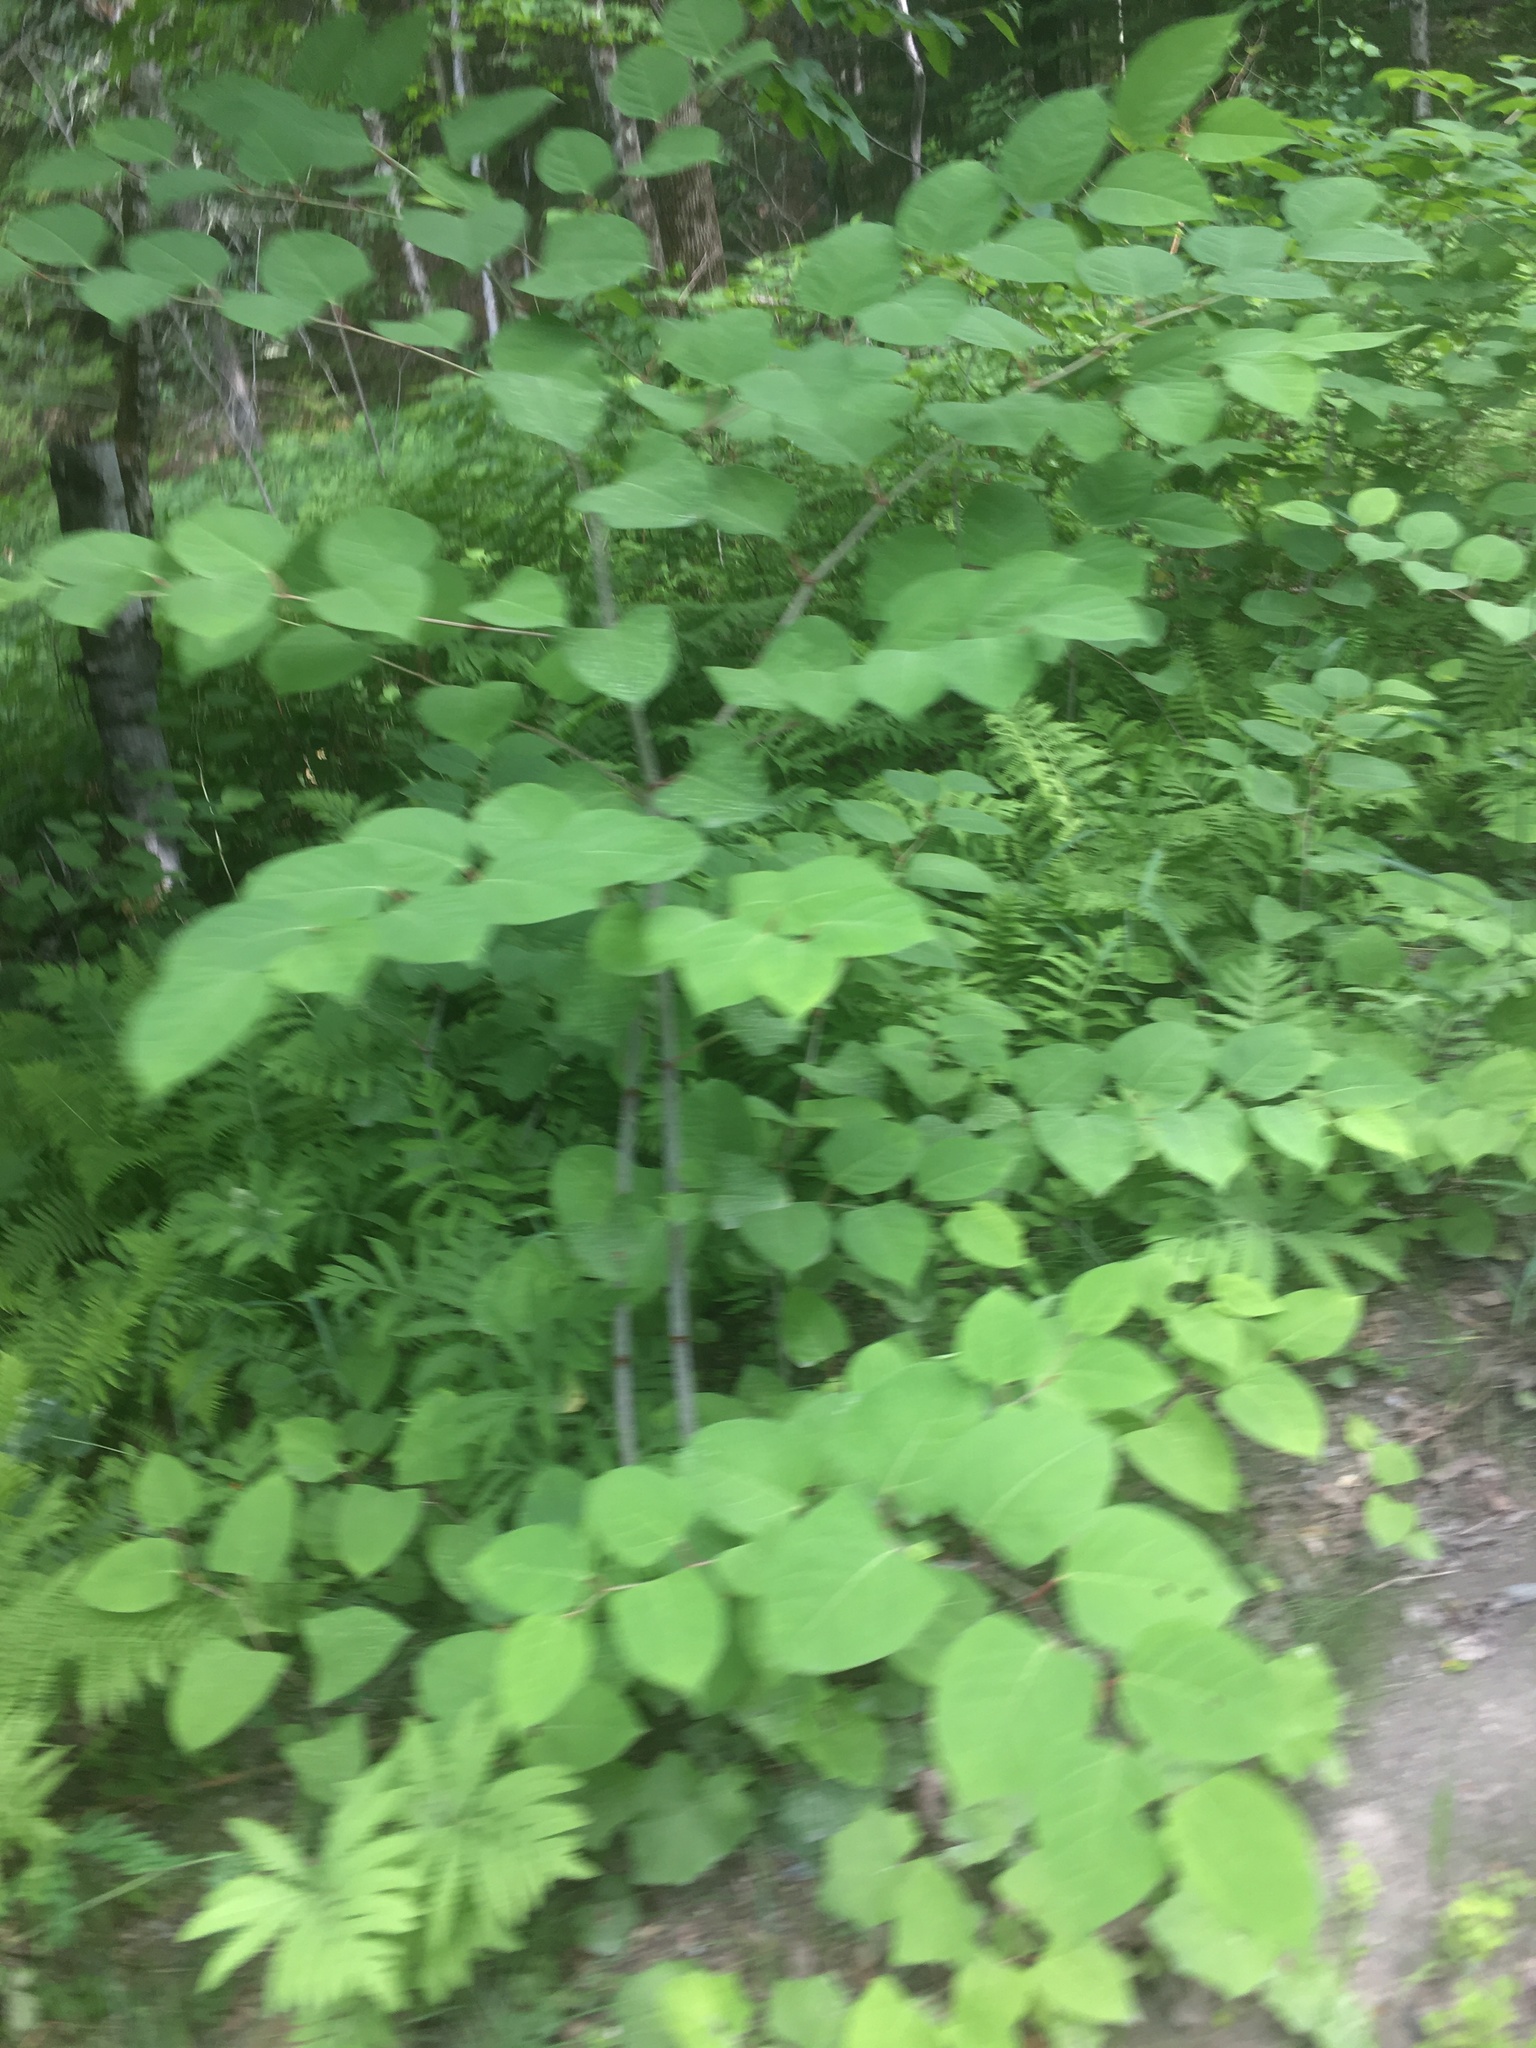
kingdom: Plantae
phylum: Tracheophyta
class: Magnoliopsida
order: Caryophyllales
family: Polygonaceae
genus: Reynoutria
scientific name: Reynoutria japonica
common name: Japanese knotweed
